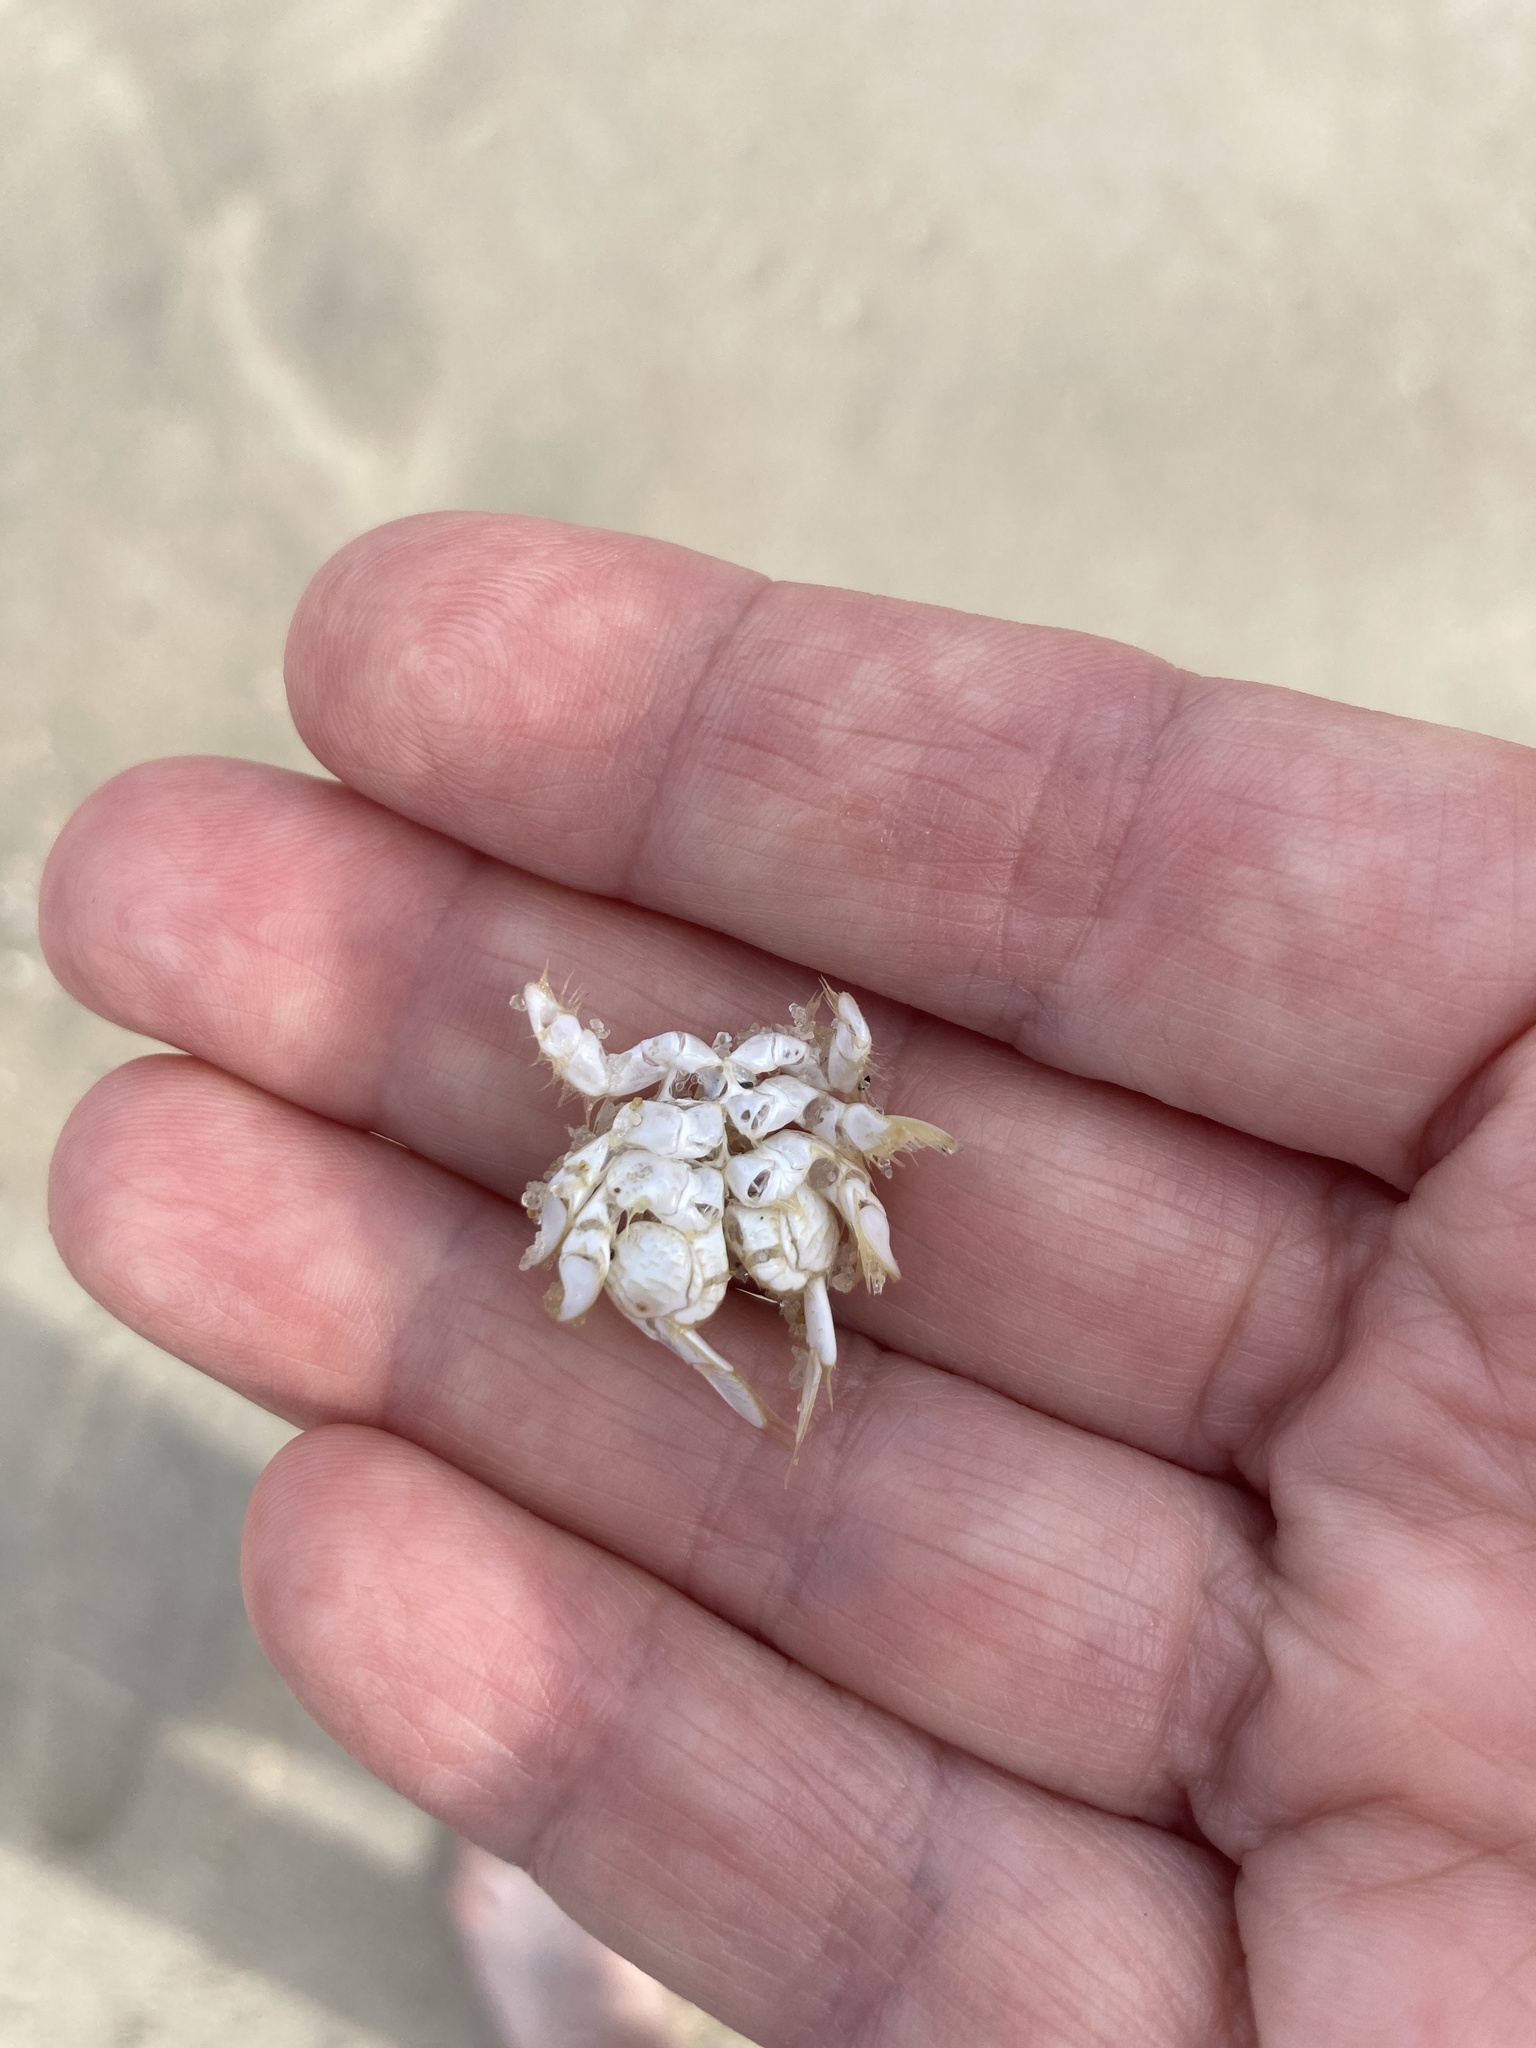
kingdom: Animalia
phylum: Arthropoda
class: Malacostraca
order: Decapoda
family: Hippidae
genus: Emerita
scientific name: Emerita talpoida
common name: Atlantic sand crab
